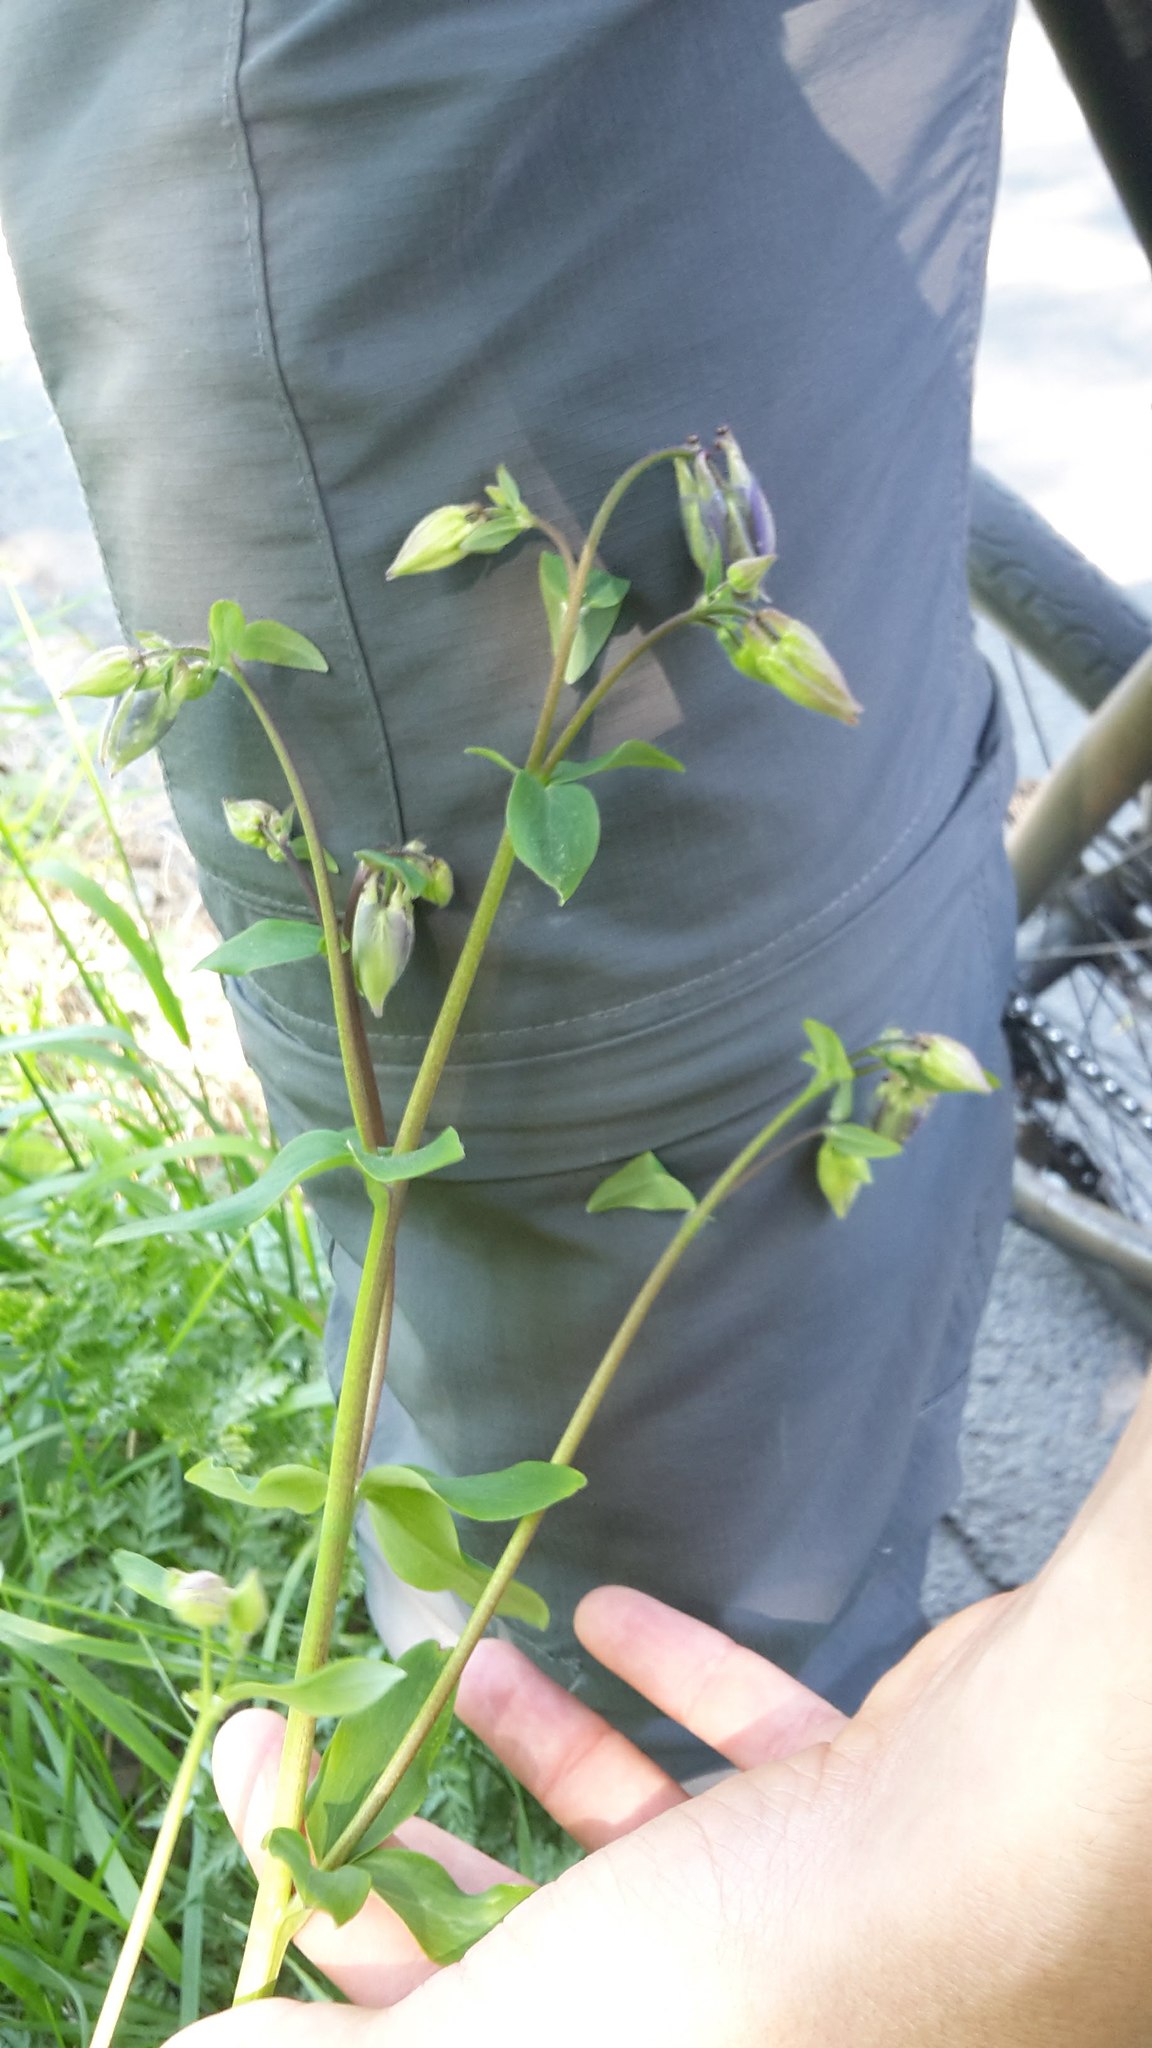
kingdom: Plantae
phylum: Tracheophyta
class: Magnoliopsida
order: Ranunculales
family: Ranunculaceae
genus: Aquilegia
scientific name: Aquilegia vulgaris
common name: Columbine
